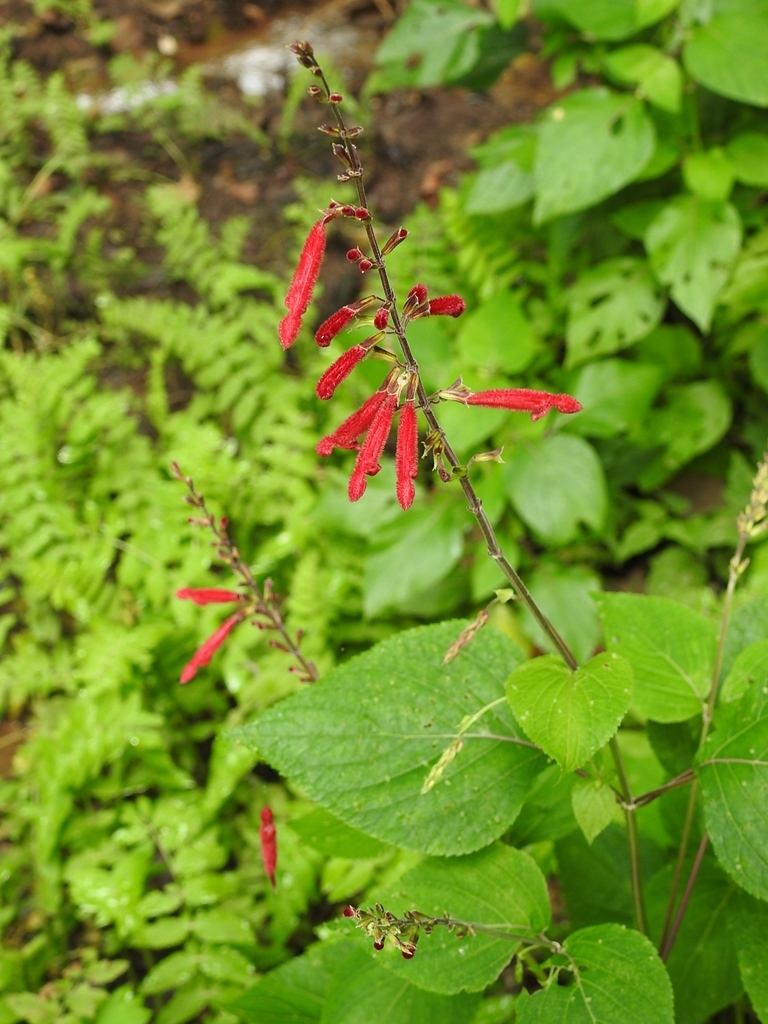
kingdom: Plantae
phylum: Tracheophyta
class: Magnoliopsida
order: Lamiales
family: Lamiaceae
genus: Salvia
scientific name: Salvia tubifera
